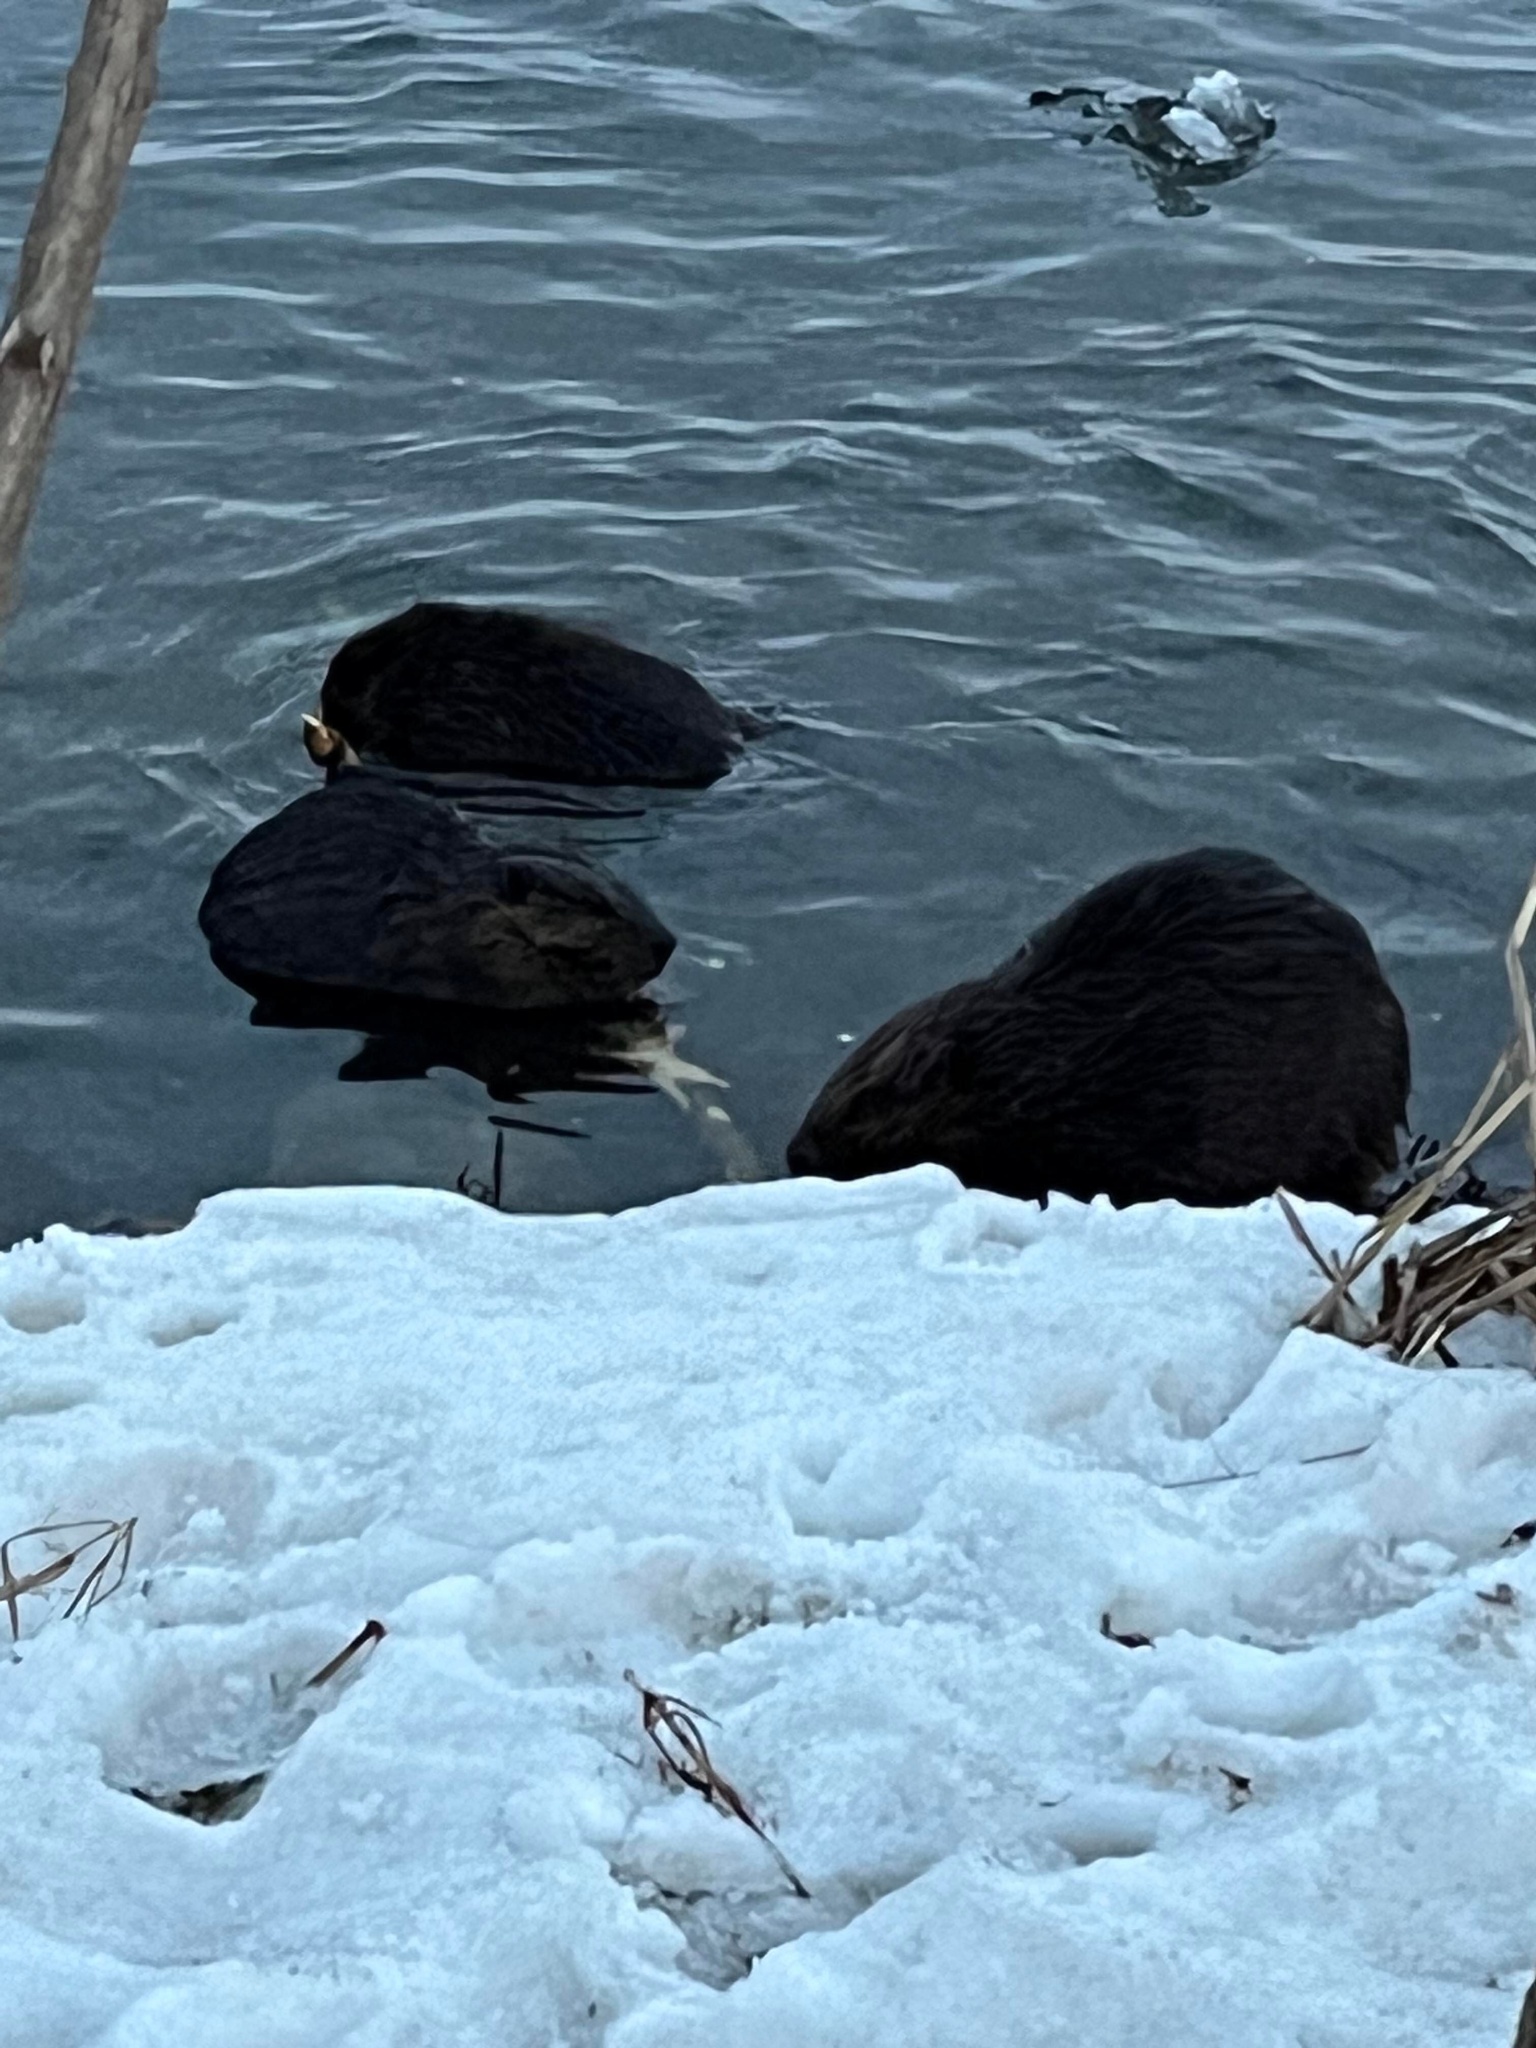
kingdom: Animalia
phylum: Chordata
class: Mammalia
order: Rodentia
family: Castoridae
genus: Castor
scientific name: Castor canadensis
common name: American beaver
